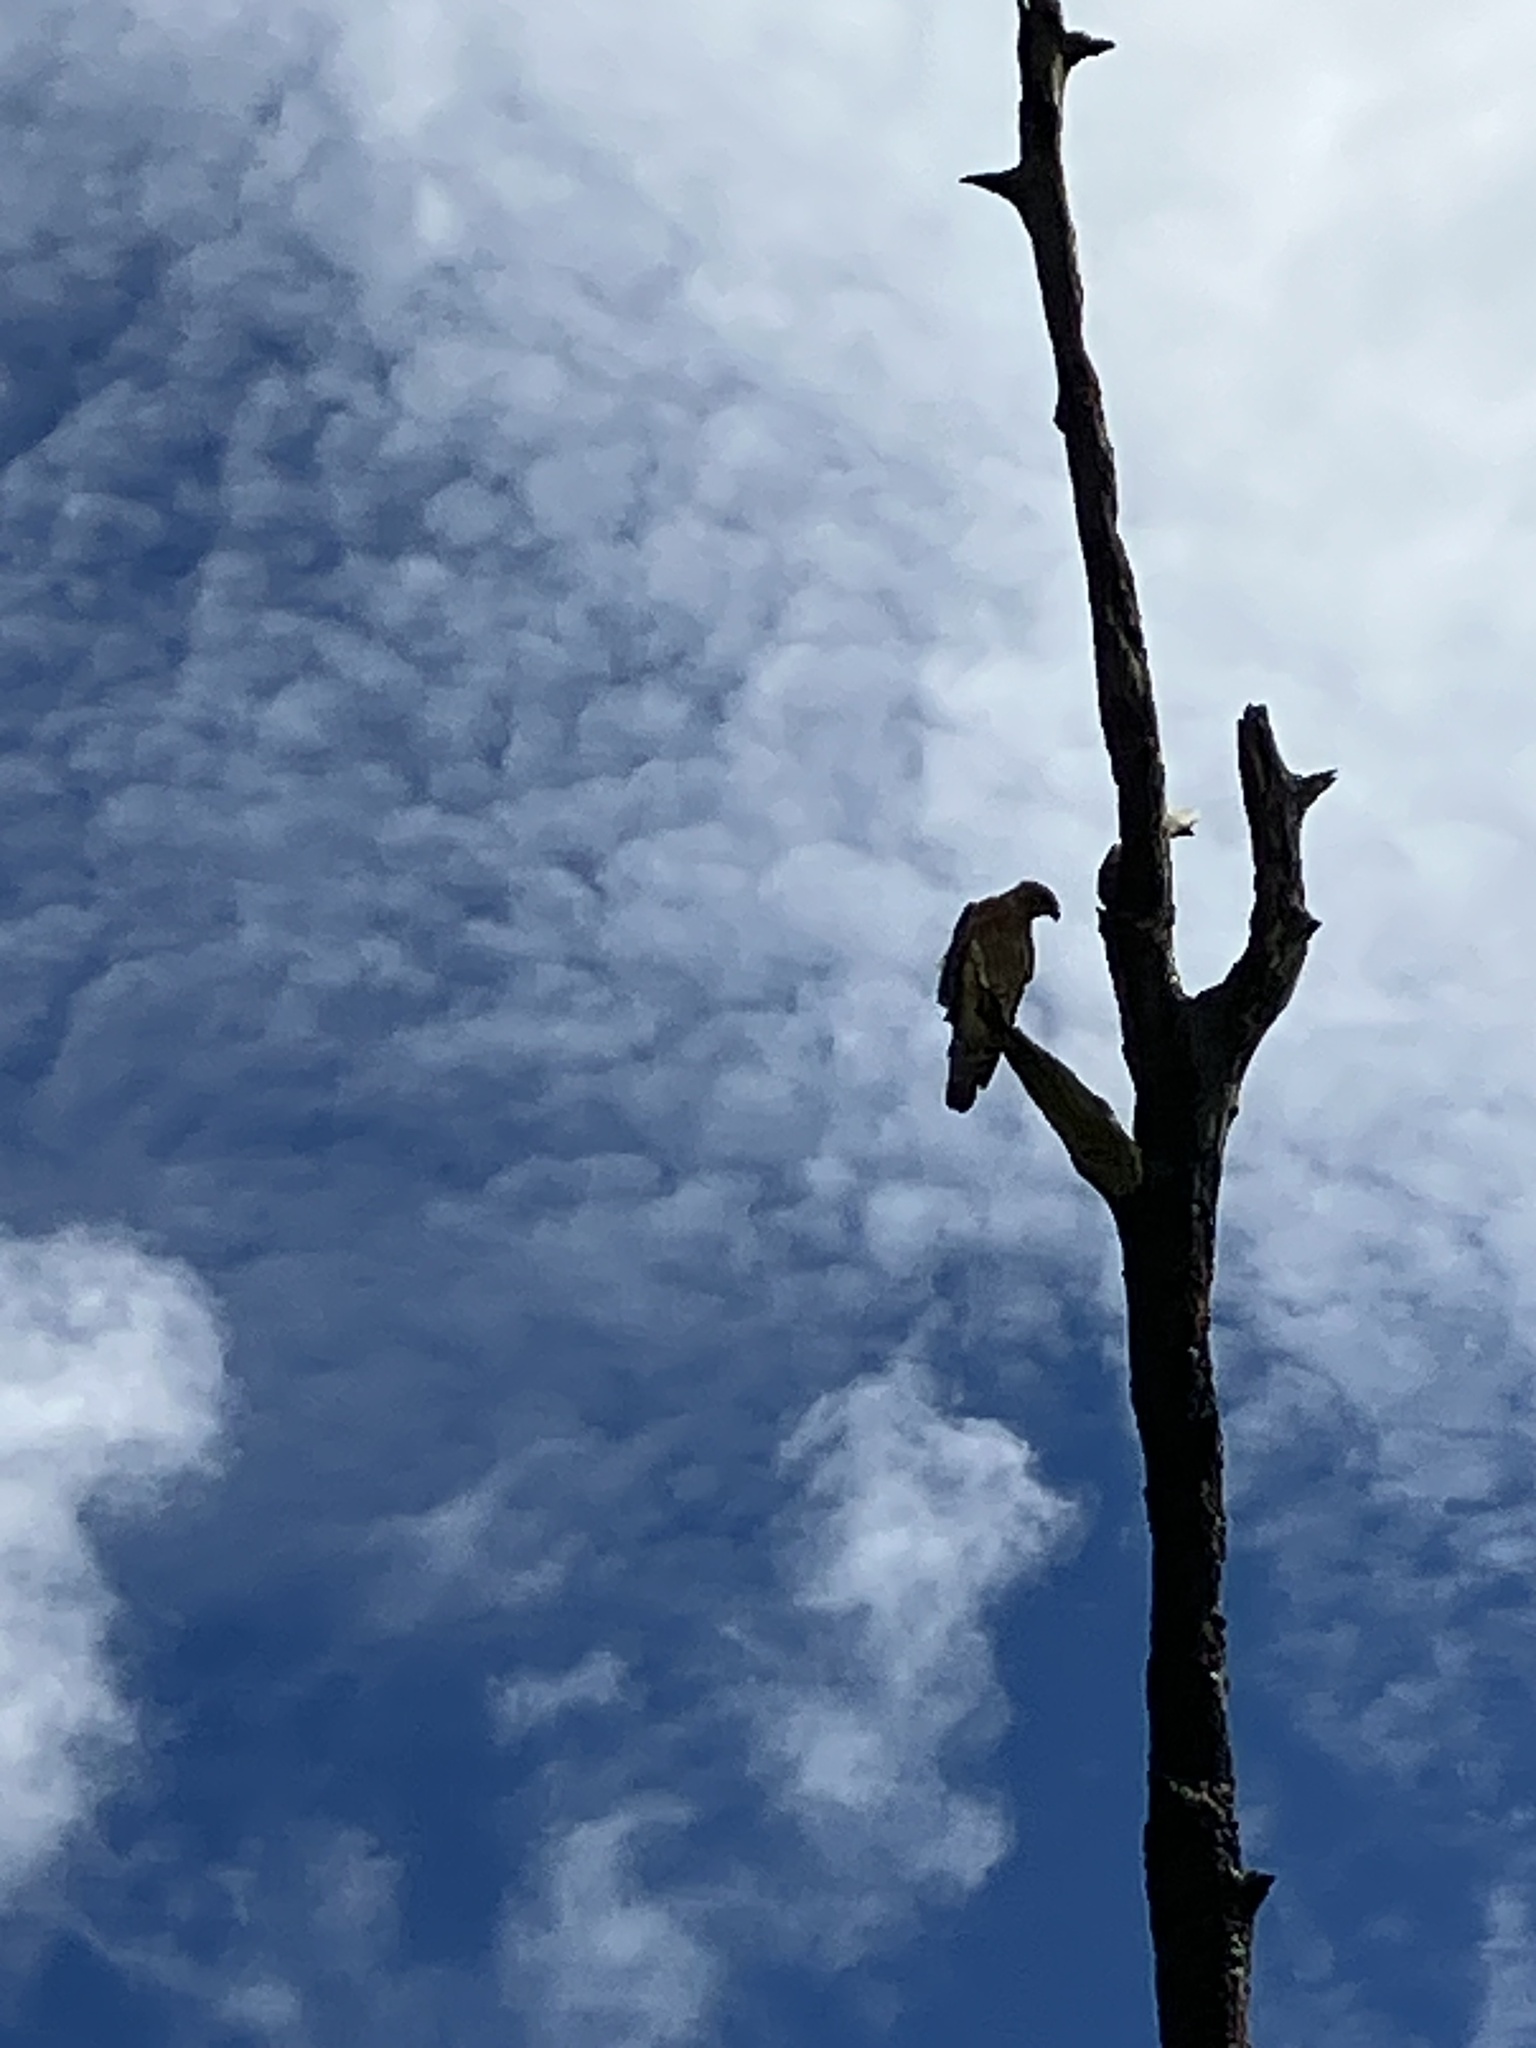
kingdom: Animalia
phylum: Chordata
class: Aves
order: Accipitriformes
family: Accipitridae
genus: Buteo
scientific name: Buteo lineatus
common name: Red-shouldered hawk
